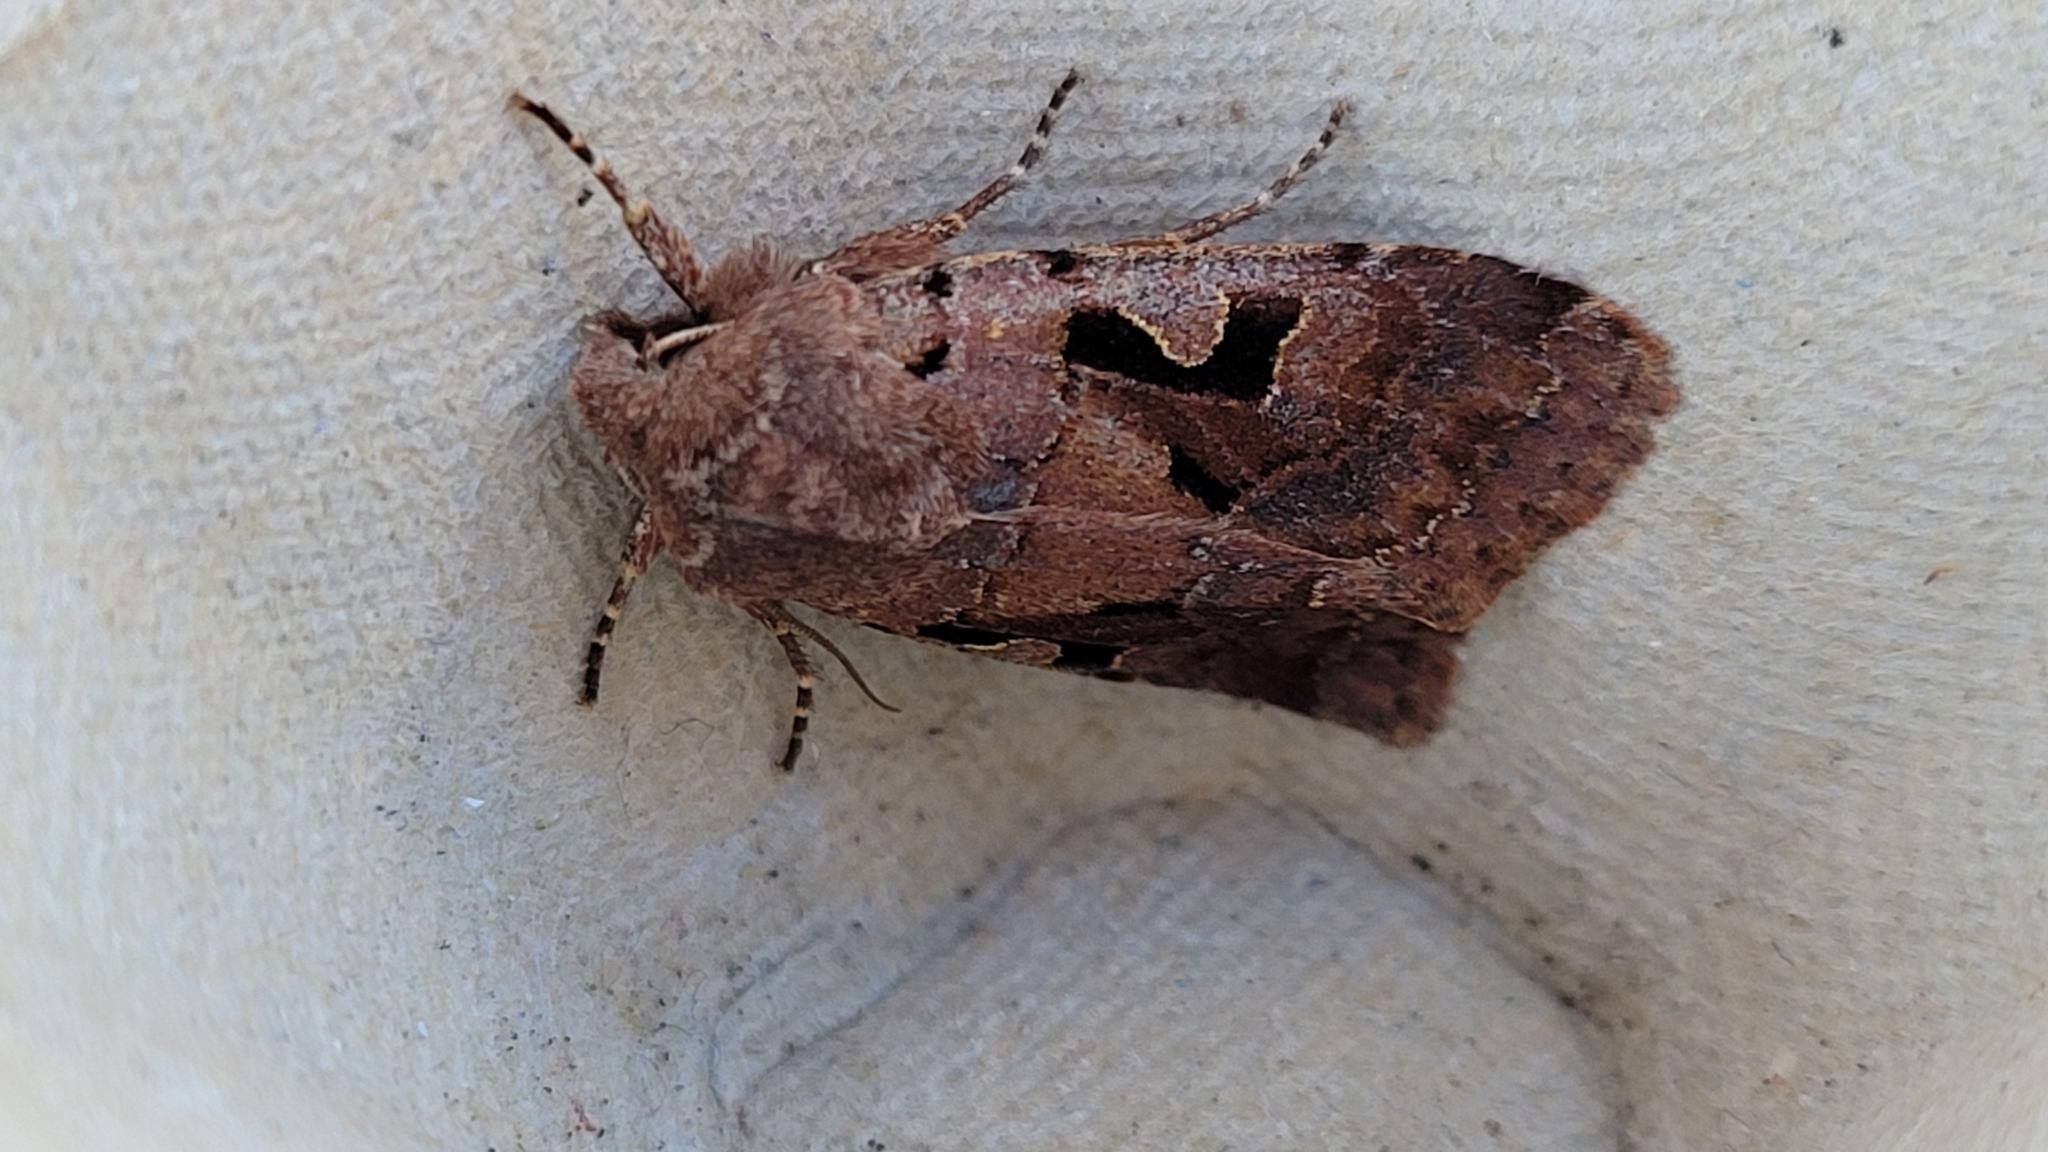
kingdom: Animalia
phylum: Arthropoda
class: Insecta
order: Lepidoptera
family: Noctuidae
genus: Orthosia
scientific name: Orthosia gothica
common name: Hebrew character
